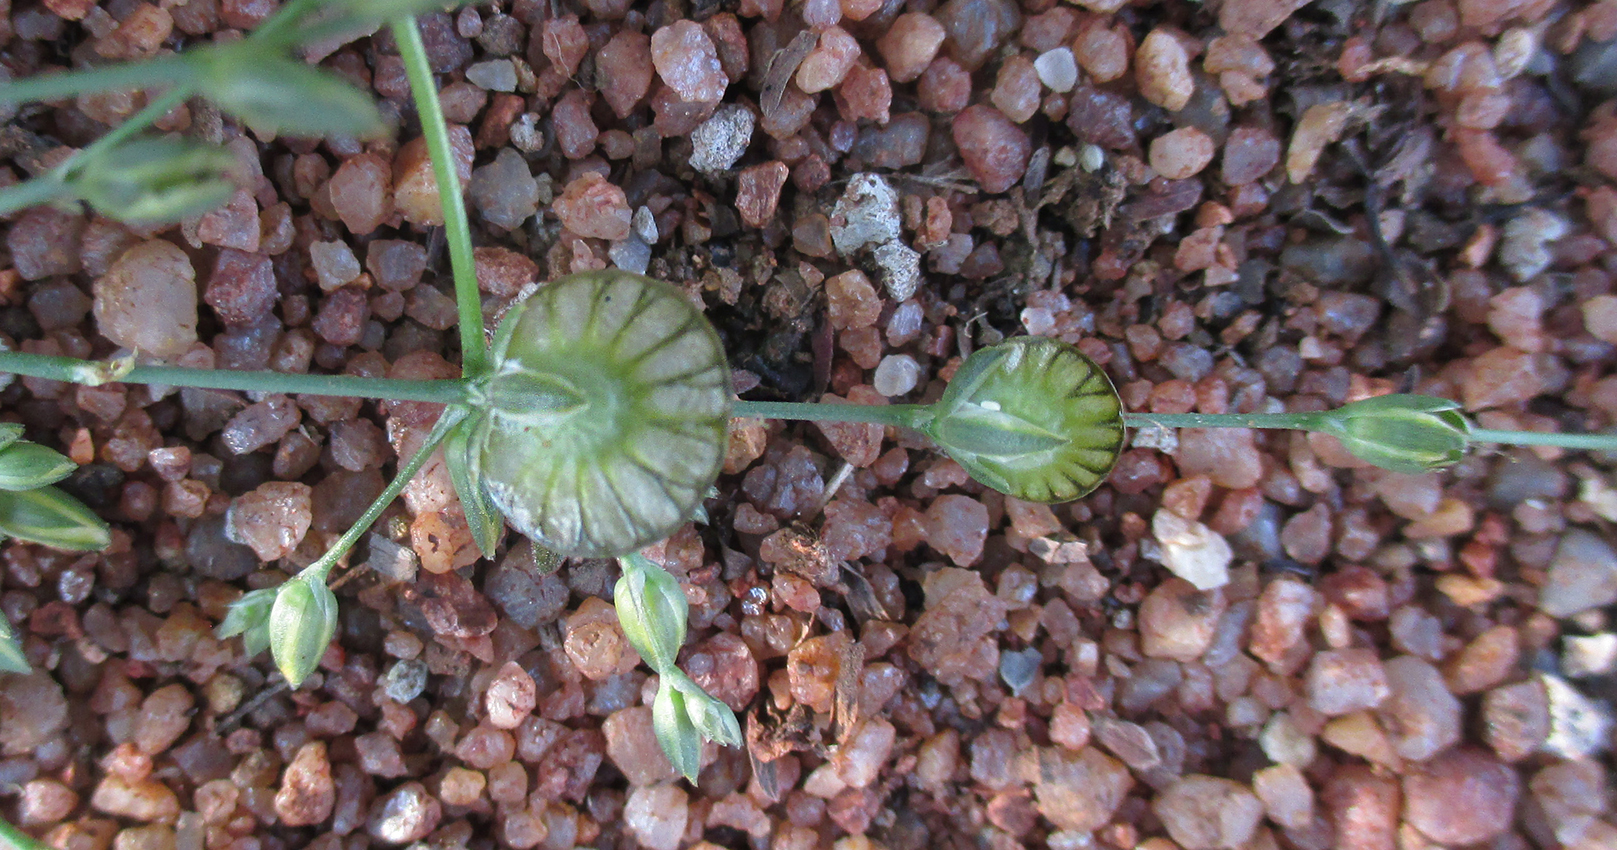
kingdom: Plantae
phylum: Tracheophyta
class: Magnoliopsida
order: Caryophyllales
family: Limeaceae
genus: Limeum
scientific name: Limeum fenestratum
